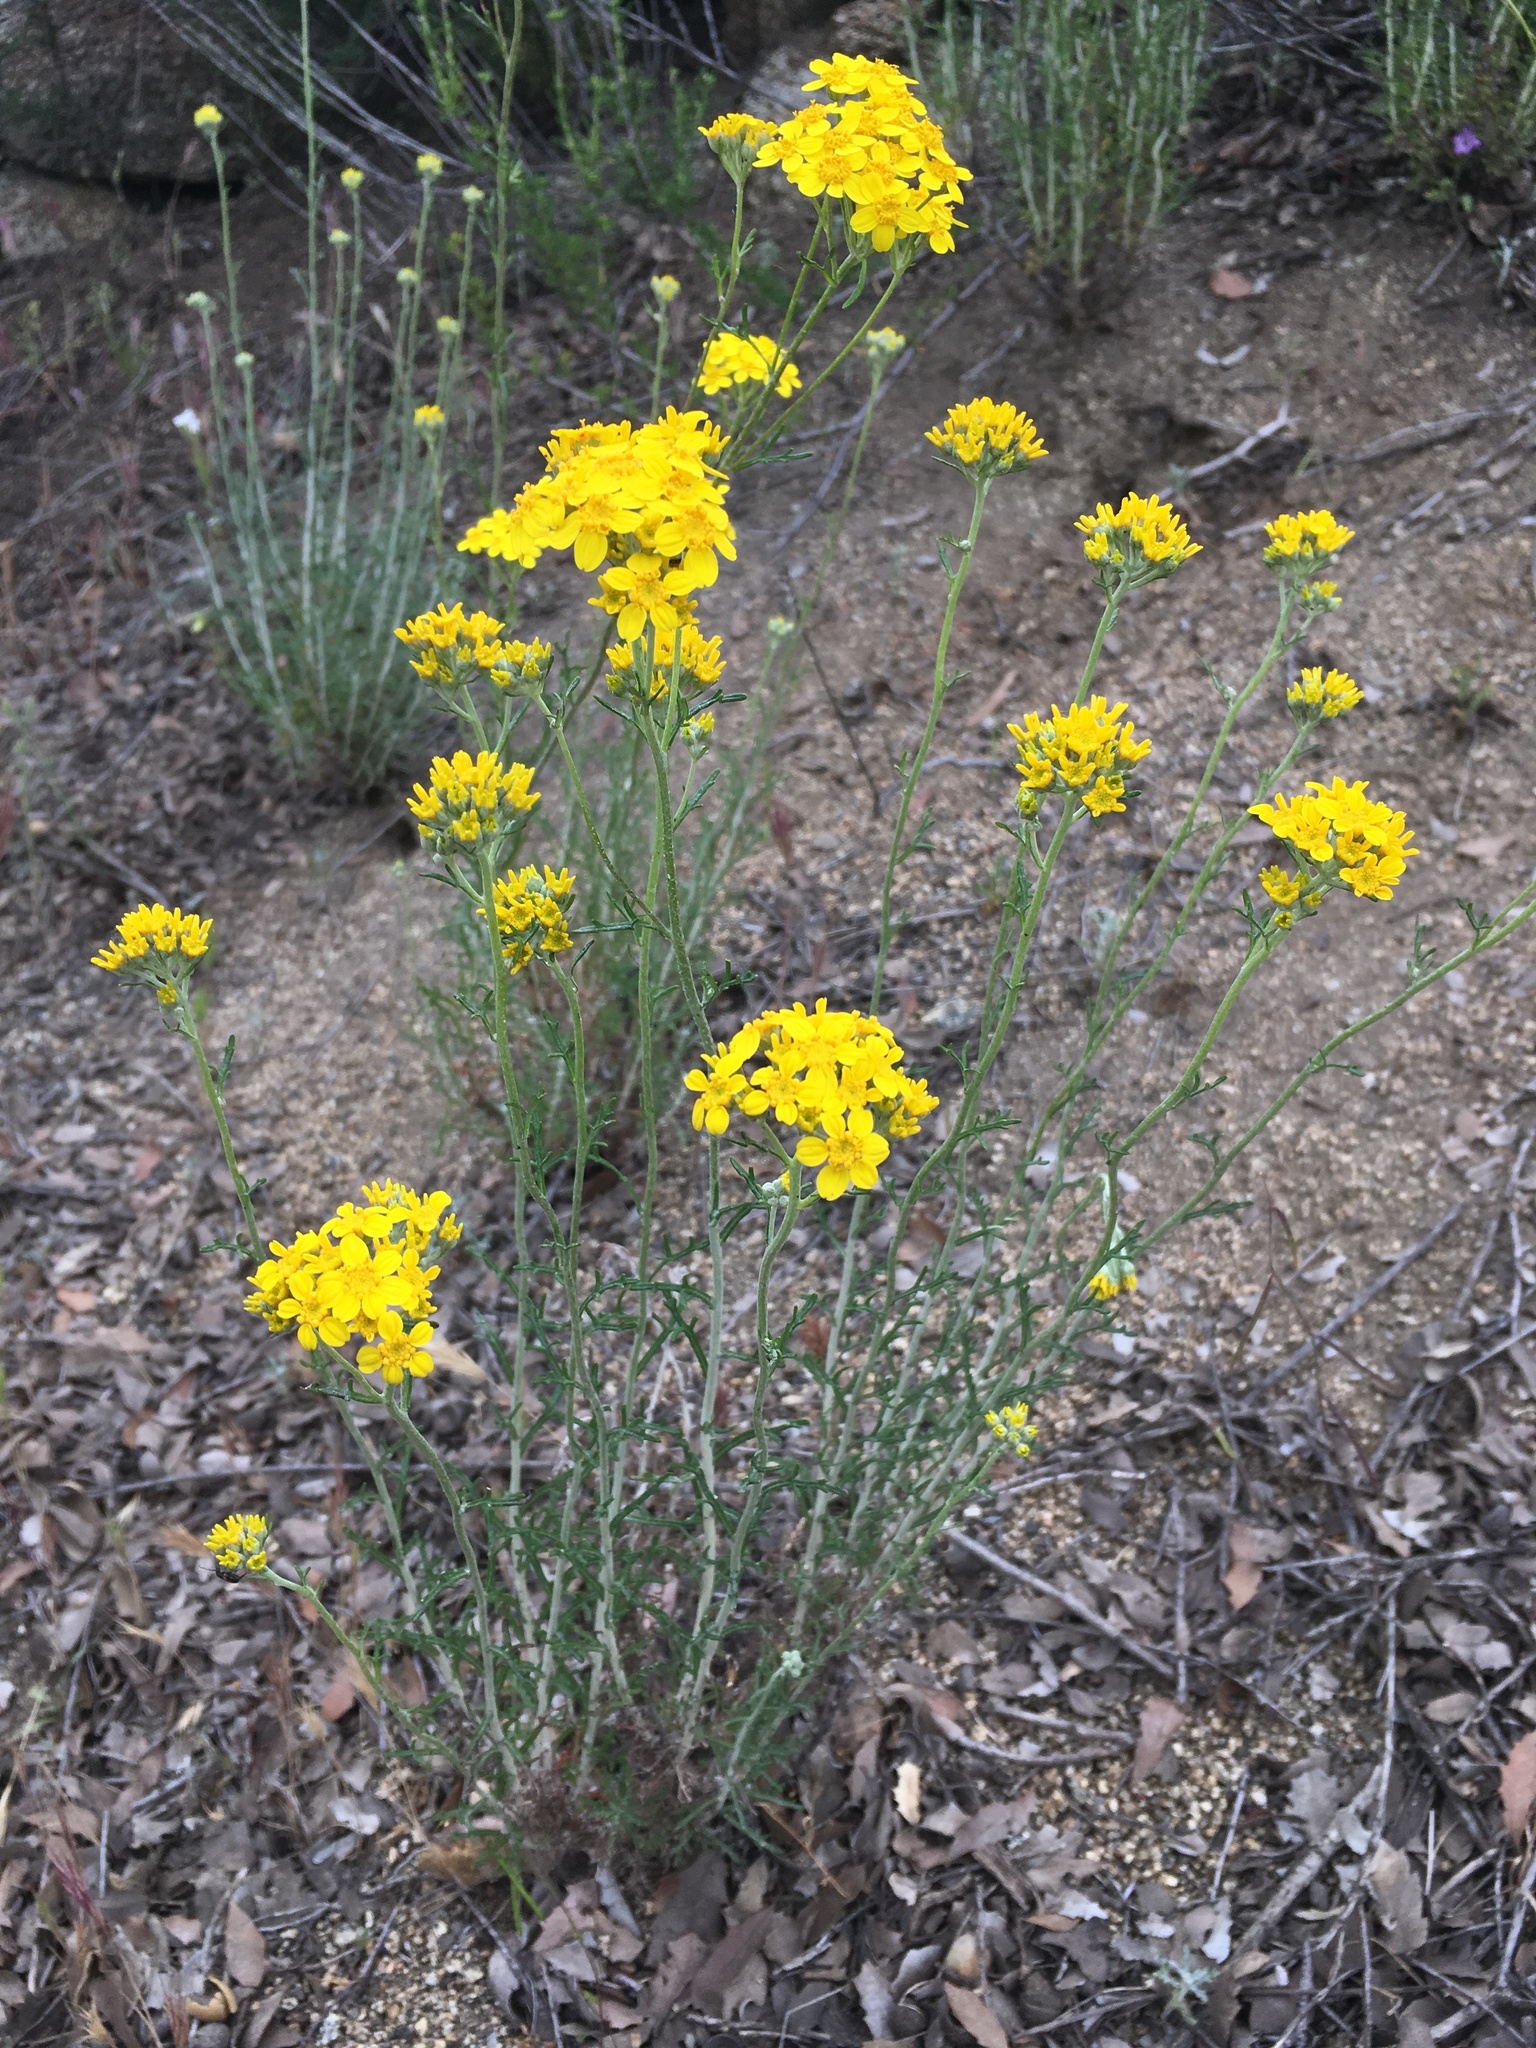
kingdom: Plantae
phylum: Tracheophyta
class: Magnoliopsida
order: Asterales
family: Asteraceae
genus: Eriophyllum
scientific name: Eriophyllum confertiflorum
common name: Golden-yarrow
